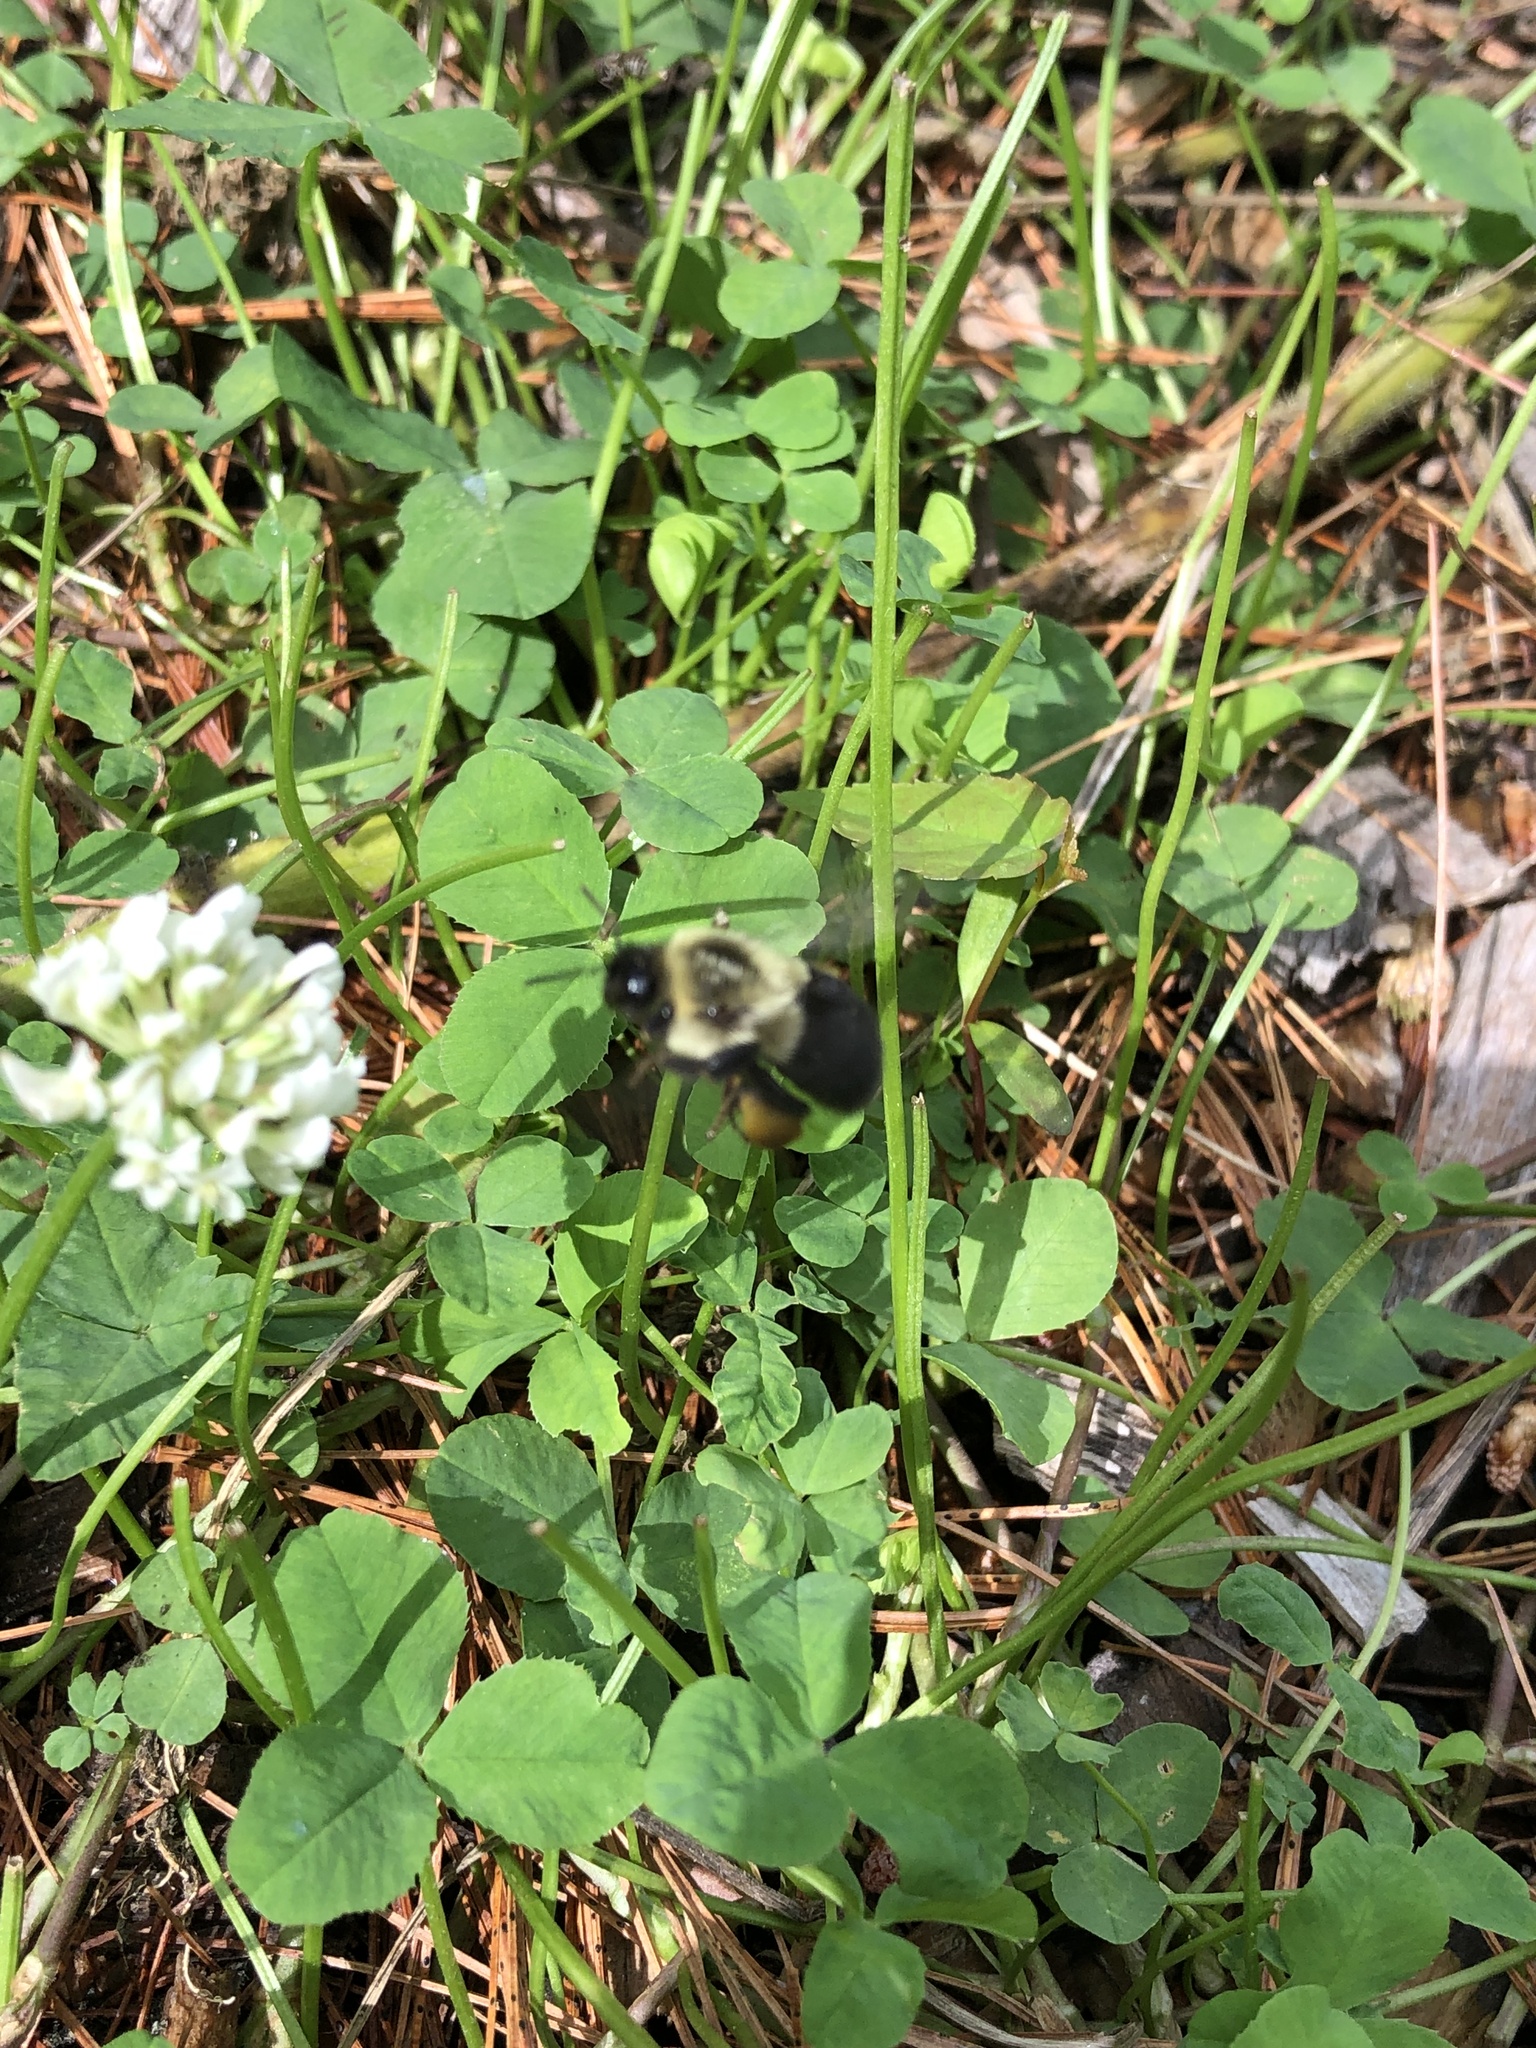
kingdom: Animalia
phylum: Arthropoda
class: Insecta
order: Hymenoptera
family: Apidae
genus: Bombus
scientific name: Bombus impatiens
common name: Common eastern bumble bee
